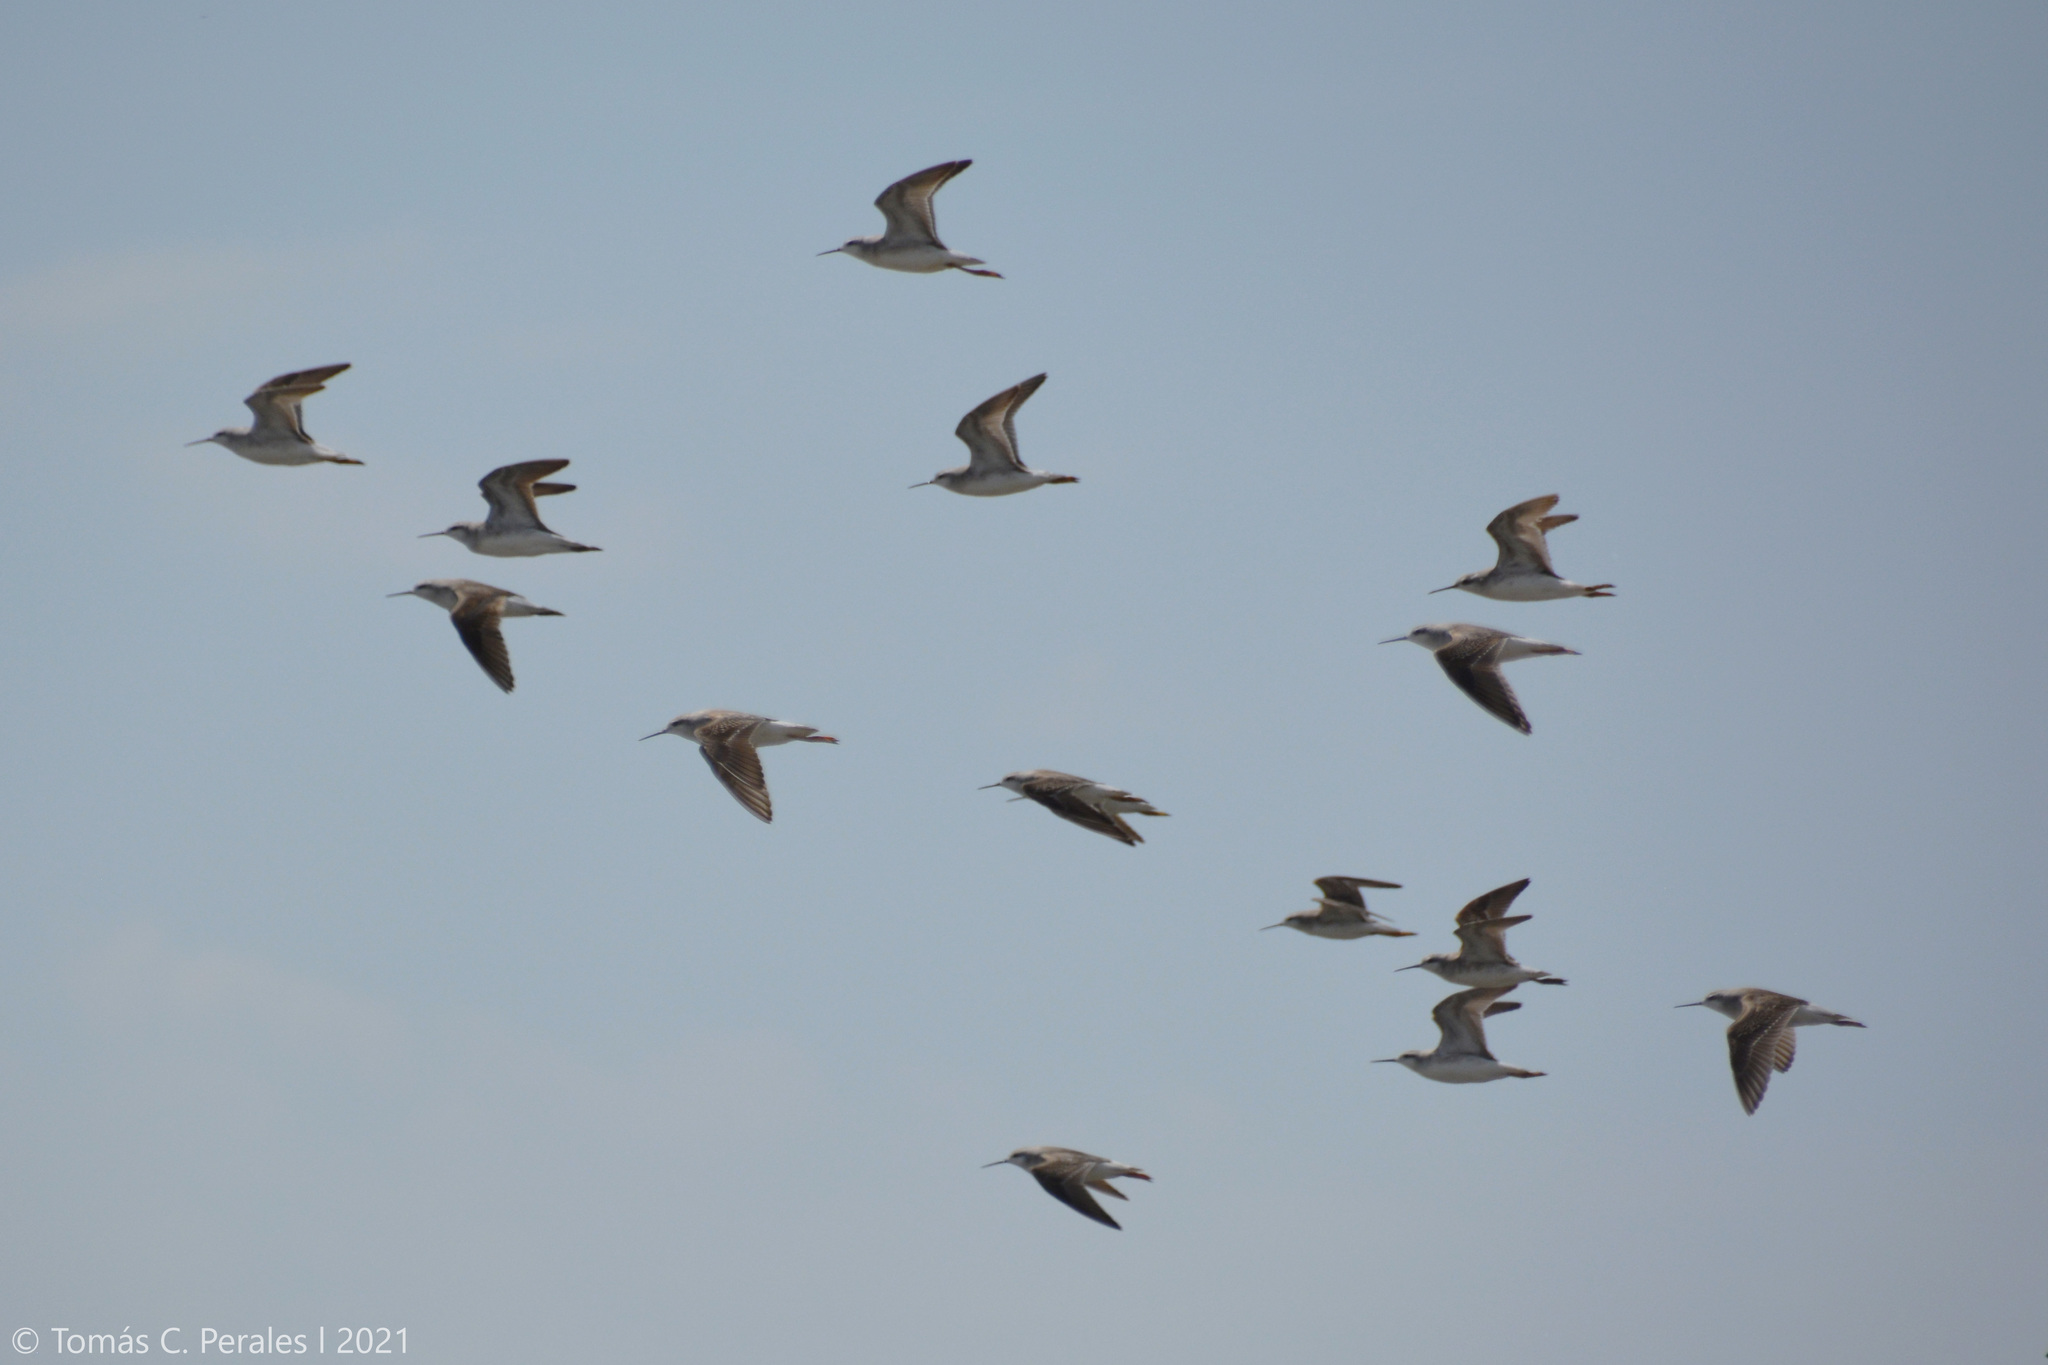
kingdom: Animalia
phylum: Chordata
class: Aves
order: Charadriiformes
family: Scolopacidae
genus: Phalaropus
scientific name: Phalaropus tricolor
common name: Wilson's phalarope
